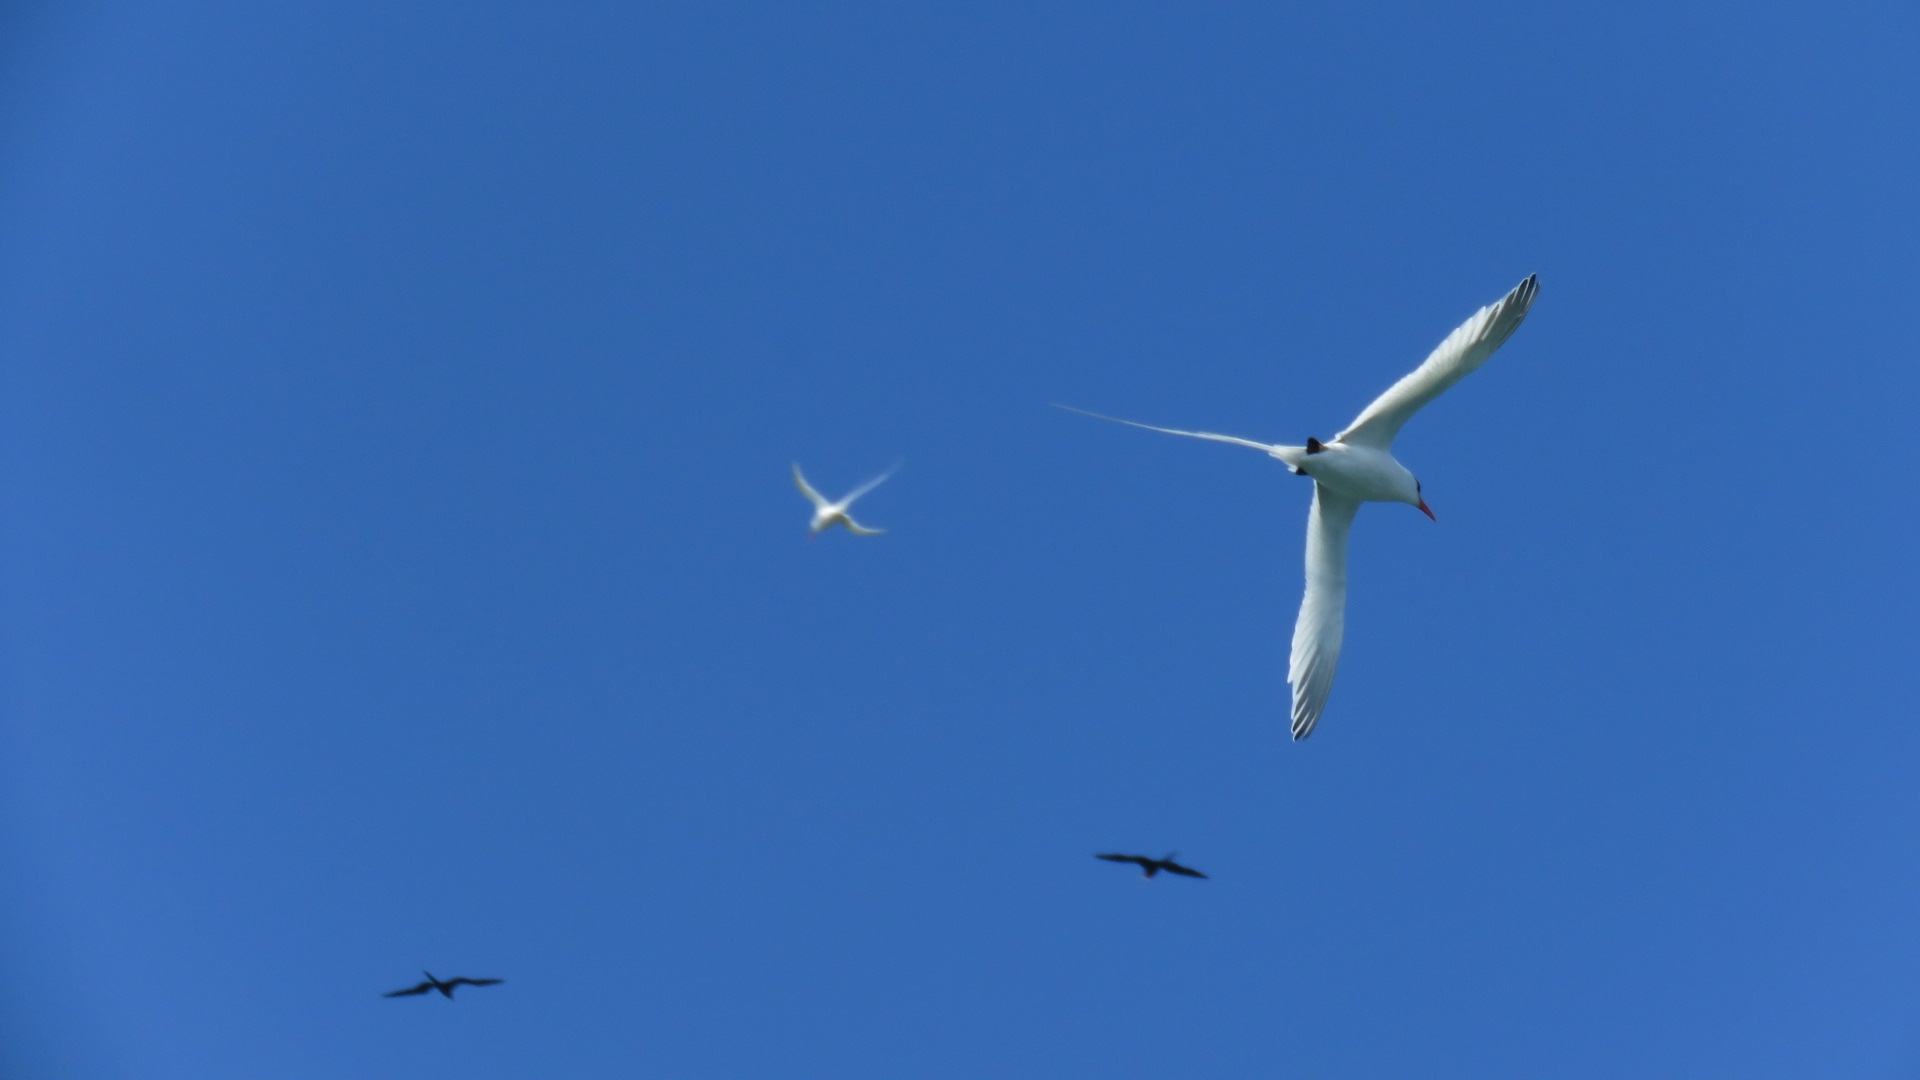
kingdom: Animalia
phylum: Chordata
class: Aves
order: Phaethontiformes
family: Phaethontidae
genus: Phaethon
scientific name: Phaethon aethereus
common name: Red-billed tropicbird
